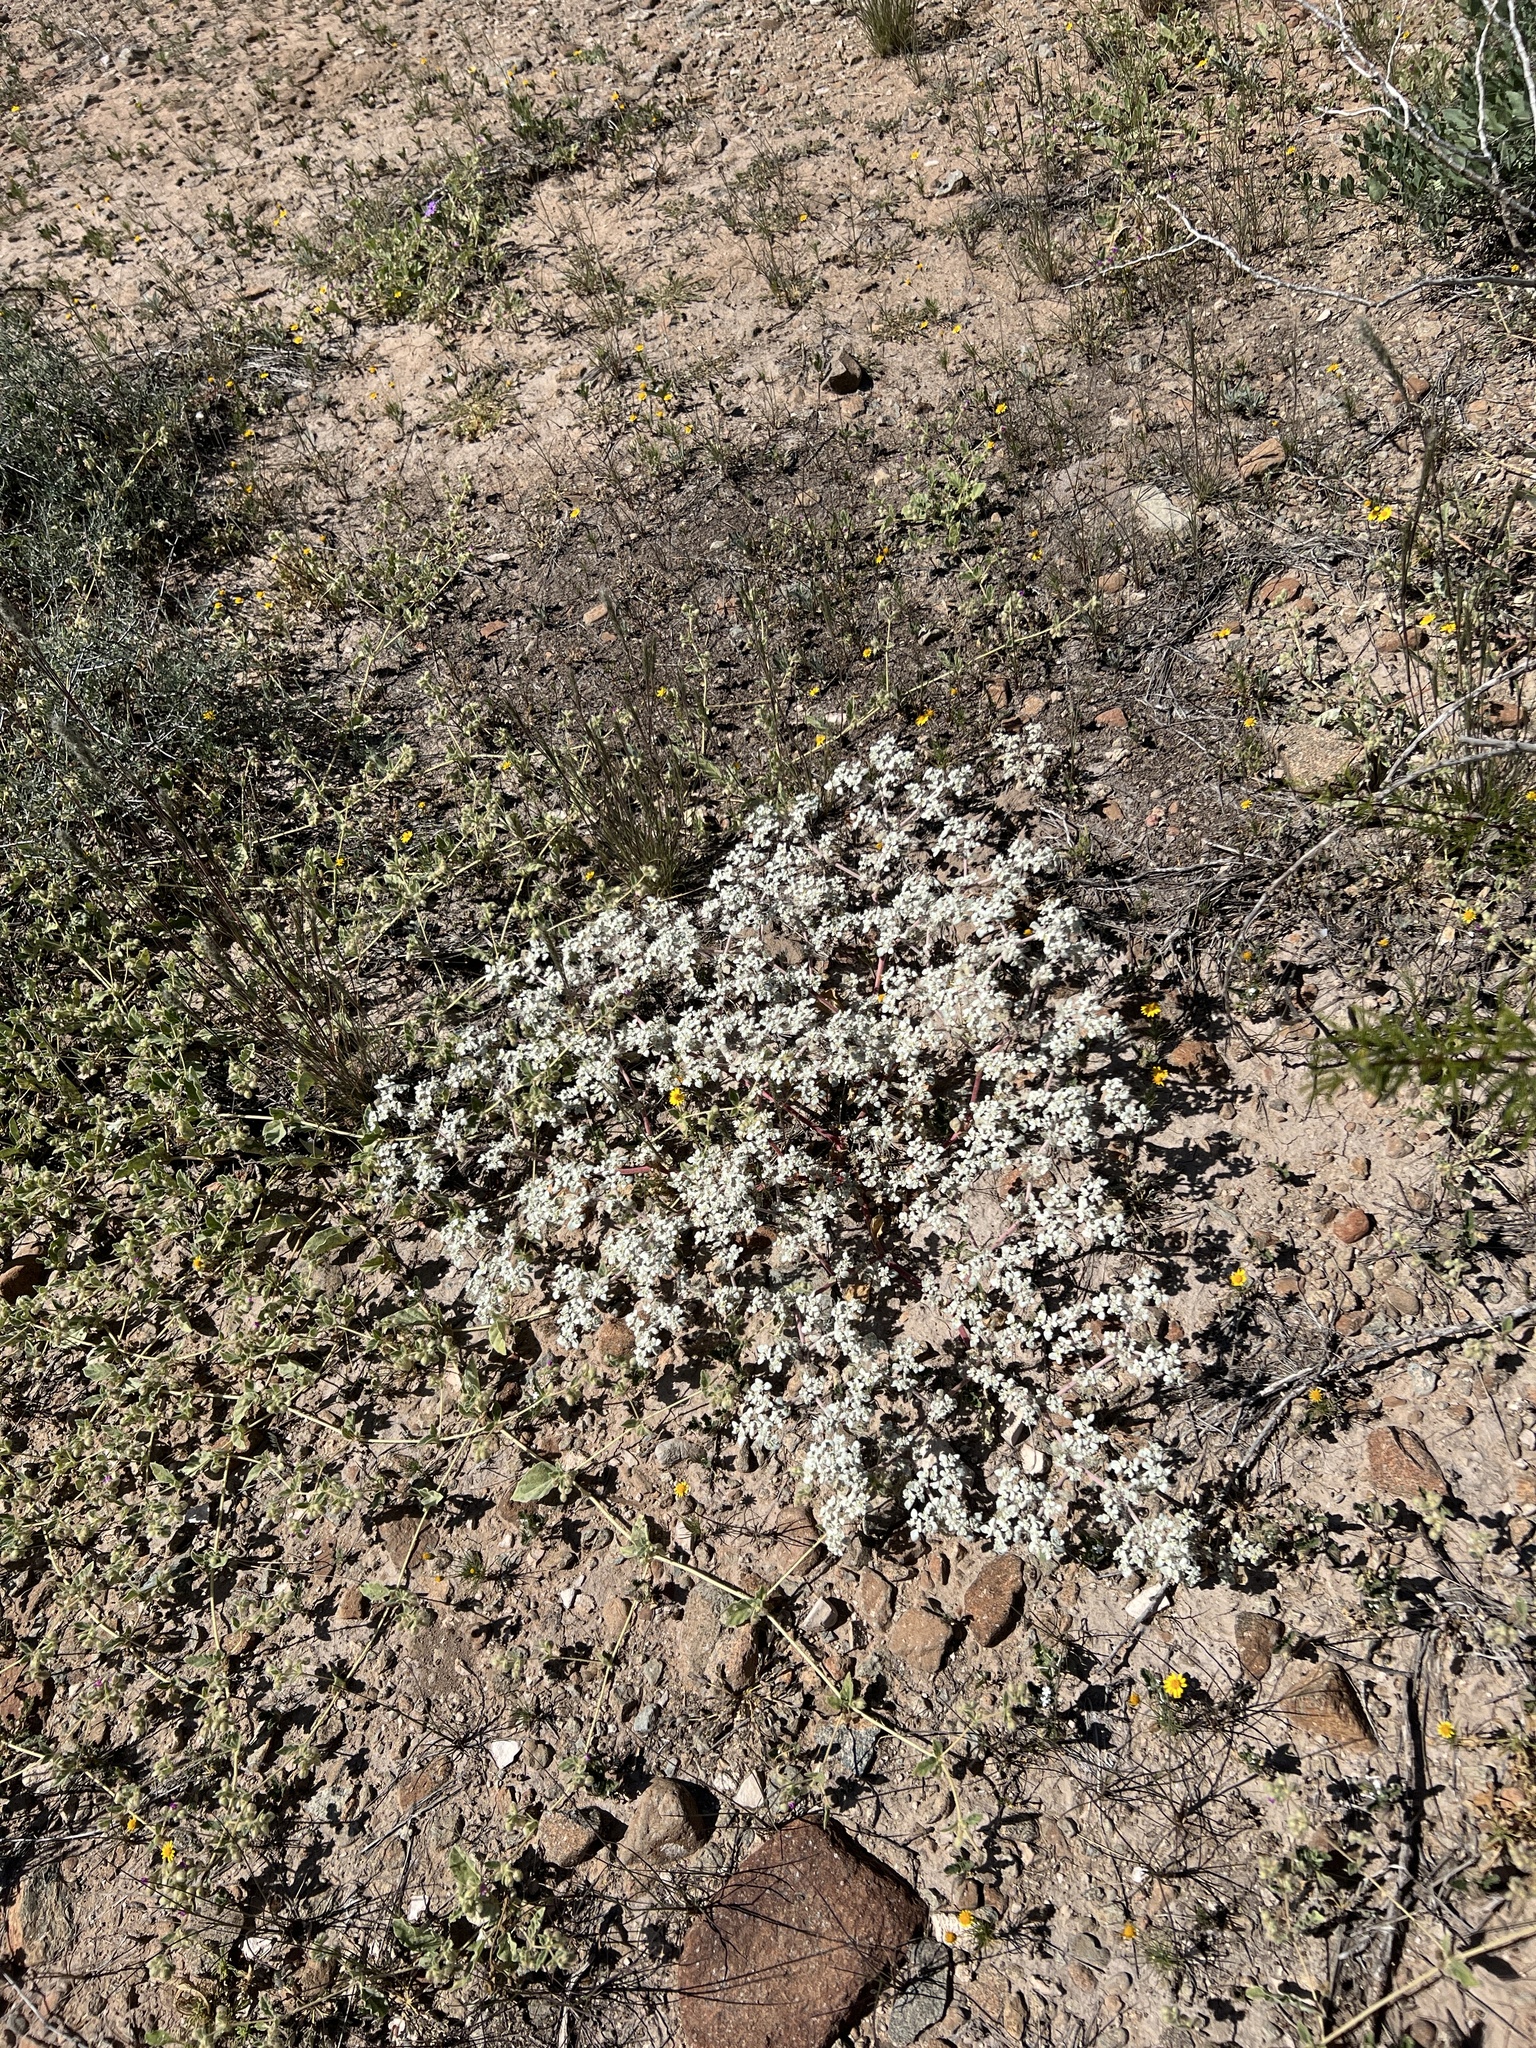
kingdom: Plantae
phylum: Tracheophyta
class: Magnoliopsida
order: Caryophyllales
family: Amaranthaceae
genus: Tidestromia
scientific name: Tidestromia lanuginosa
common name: Woolly tidestromia
